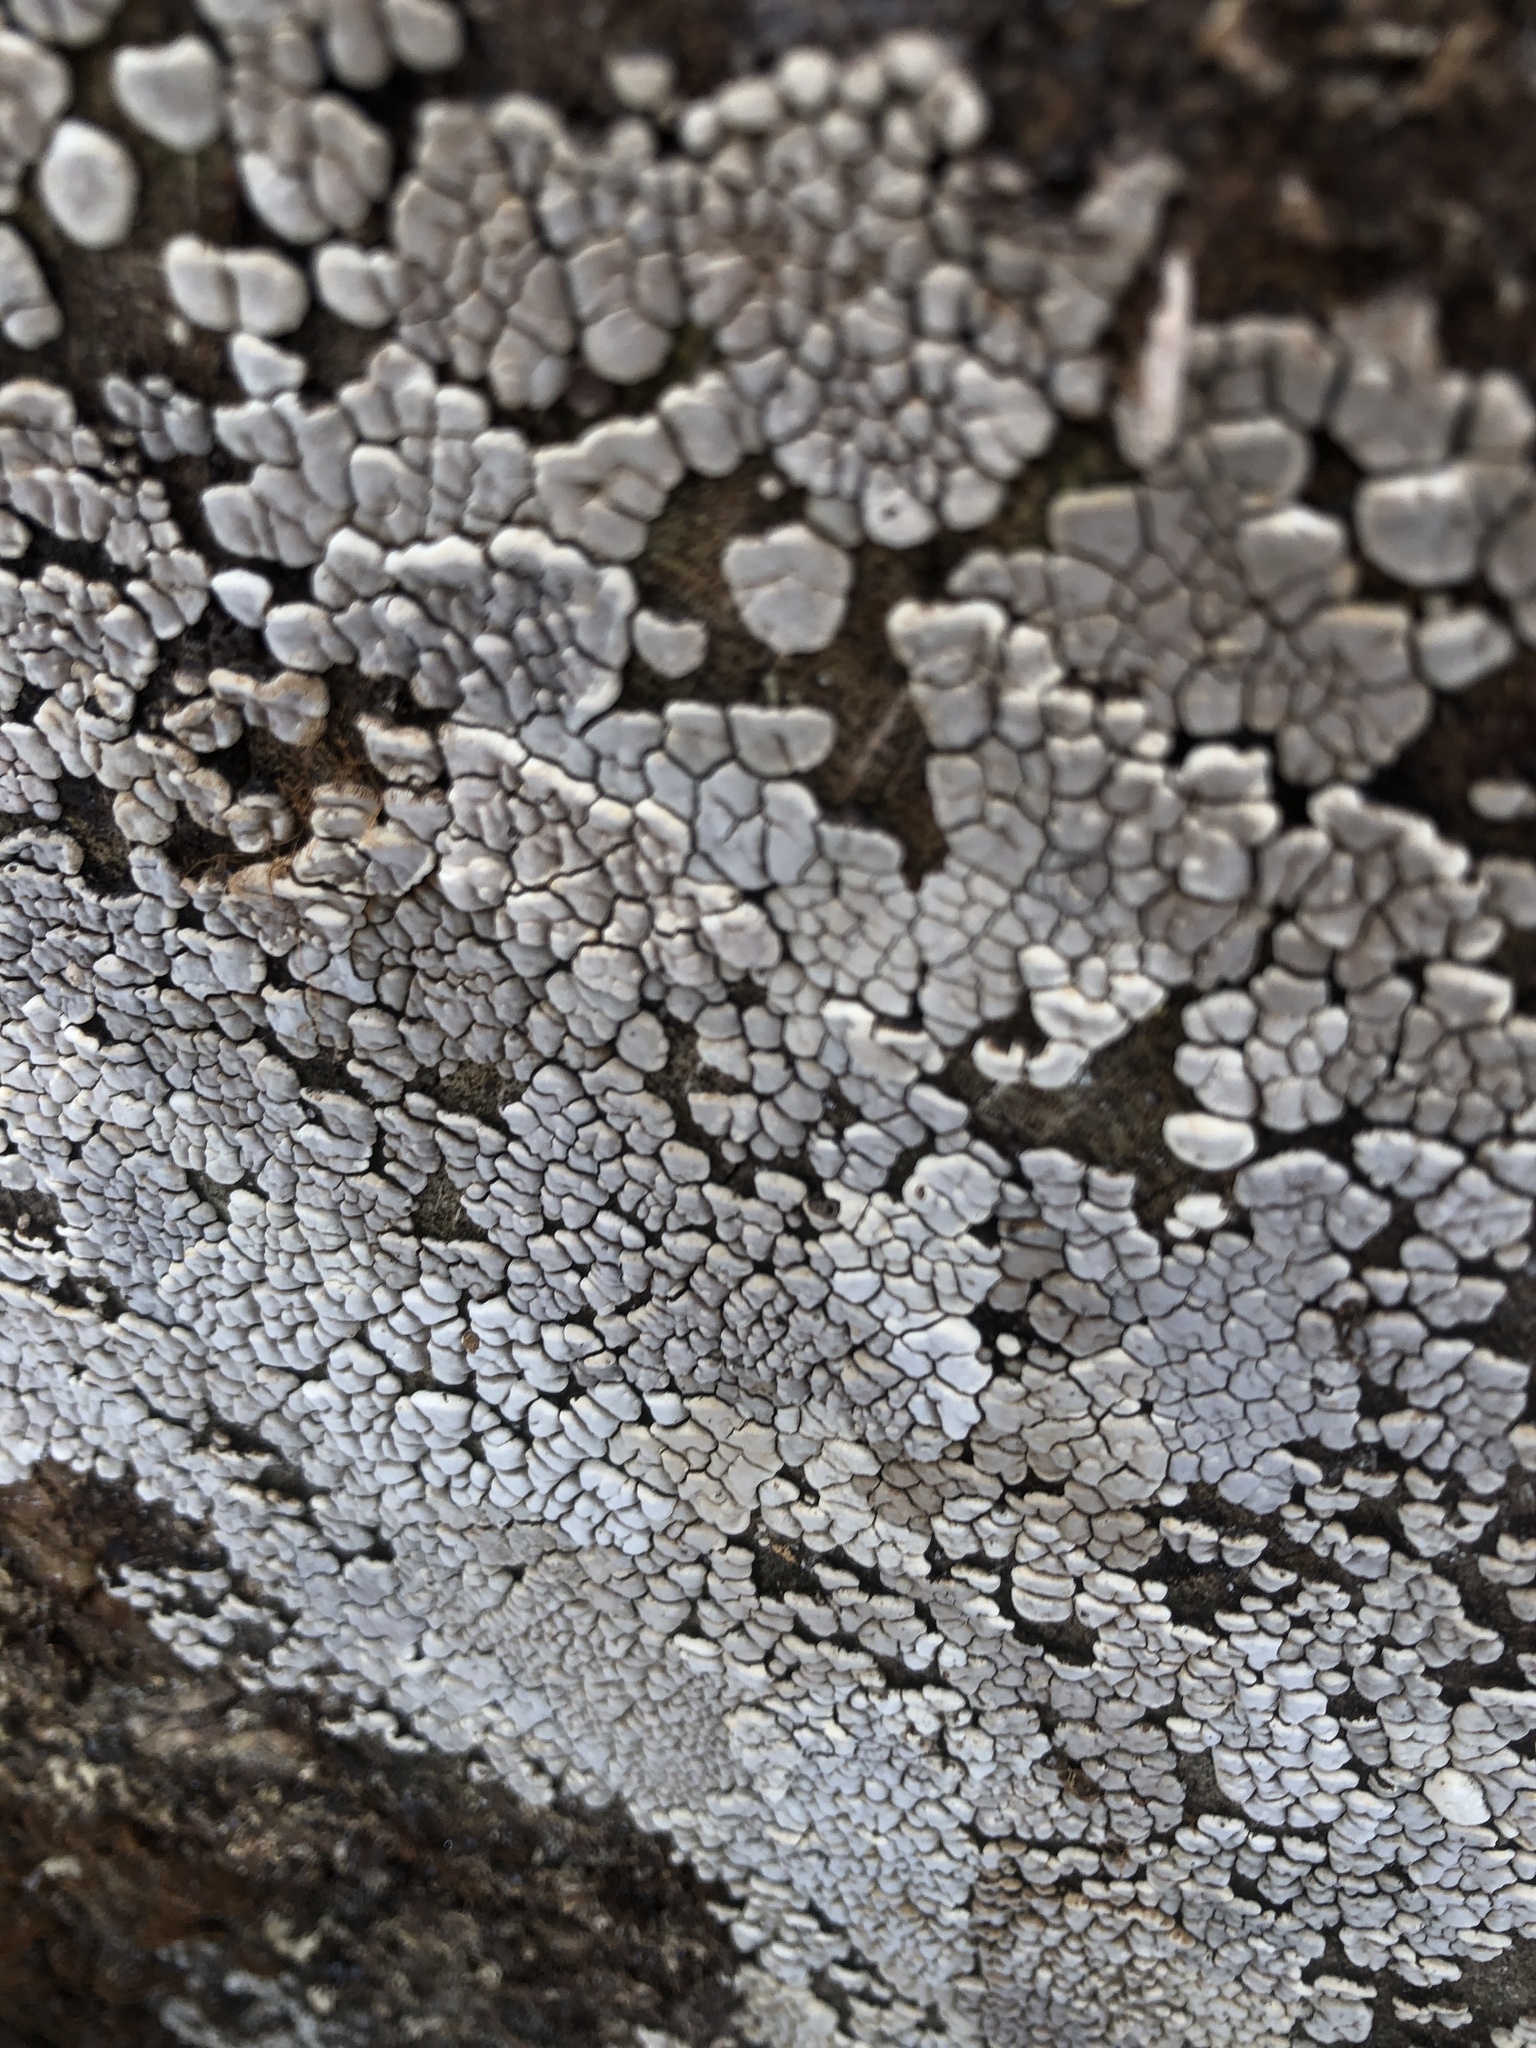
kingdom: Fungi
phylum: Basidiomycota
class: Agaricomycetes
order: Russulales
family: Stereaceae
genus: Xylobolus
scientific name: Xylobolus frustulatus
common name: Ceramic parchment
